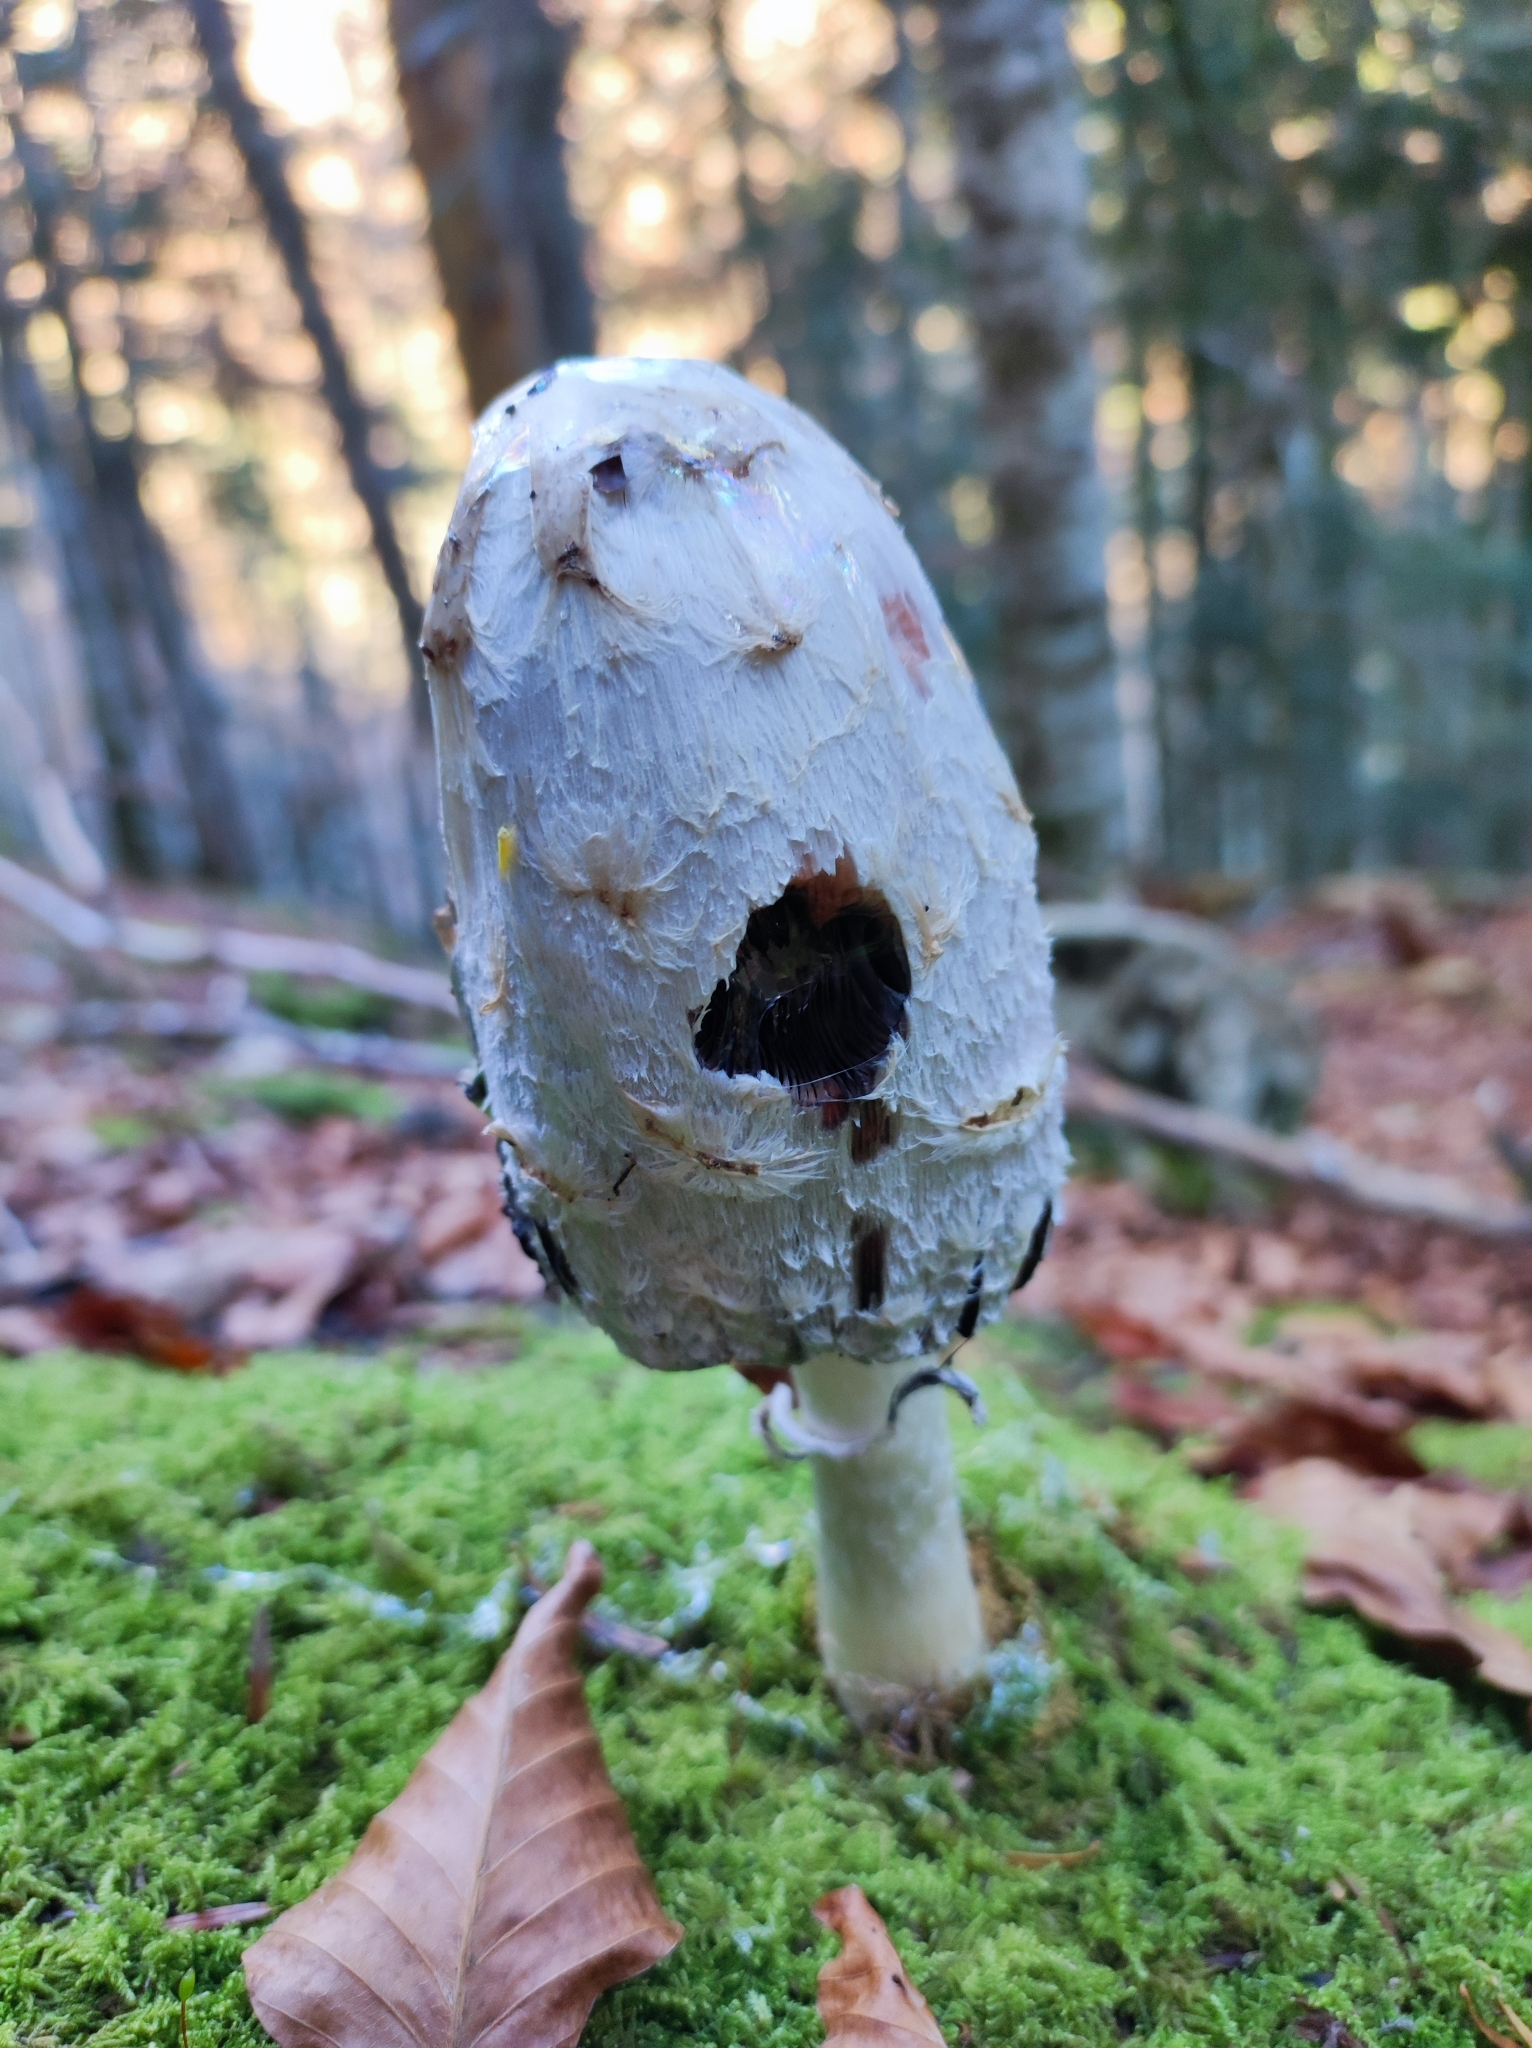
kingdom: Fungi
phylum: Basidiomycota
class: Agaricomycetes
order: Agaricales
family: Agaricaceae
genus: Coprinus
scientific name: Coprinus comatus
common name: Lawyer's wig
